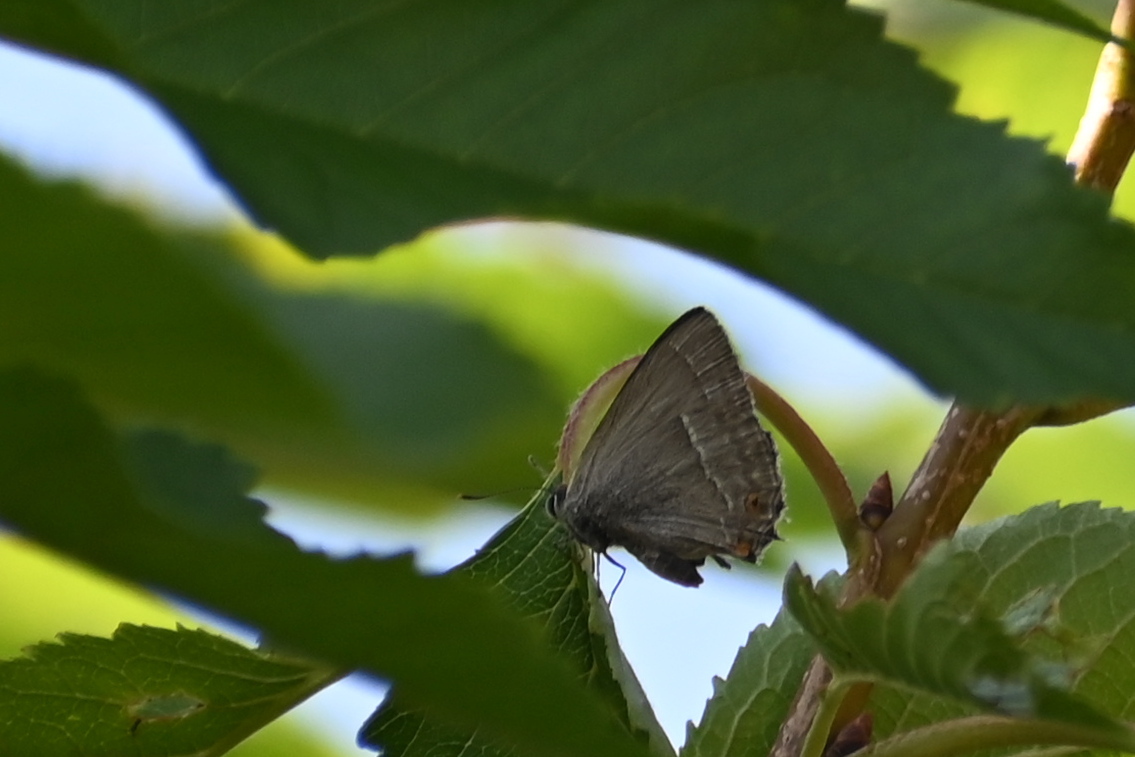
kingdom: Animalia
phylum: Arthropoda
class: Insecta
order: Lepidoptera
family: Lycaenidae
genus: Quercusia
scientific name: Quercusia quercus
